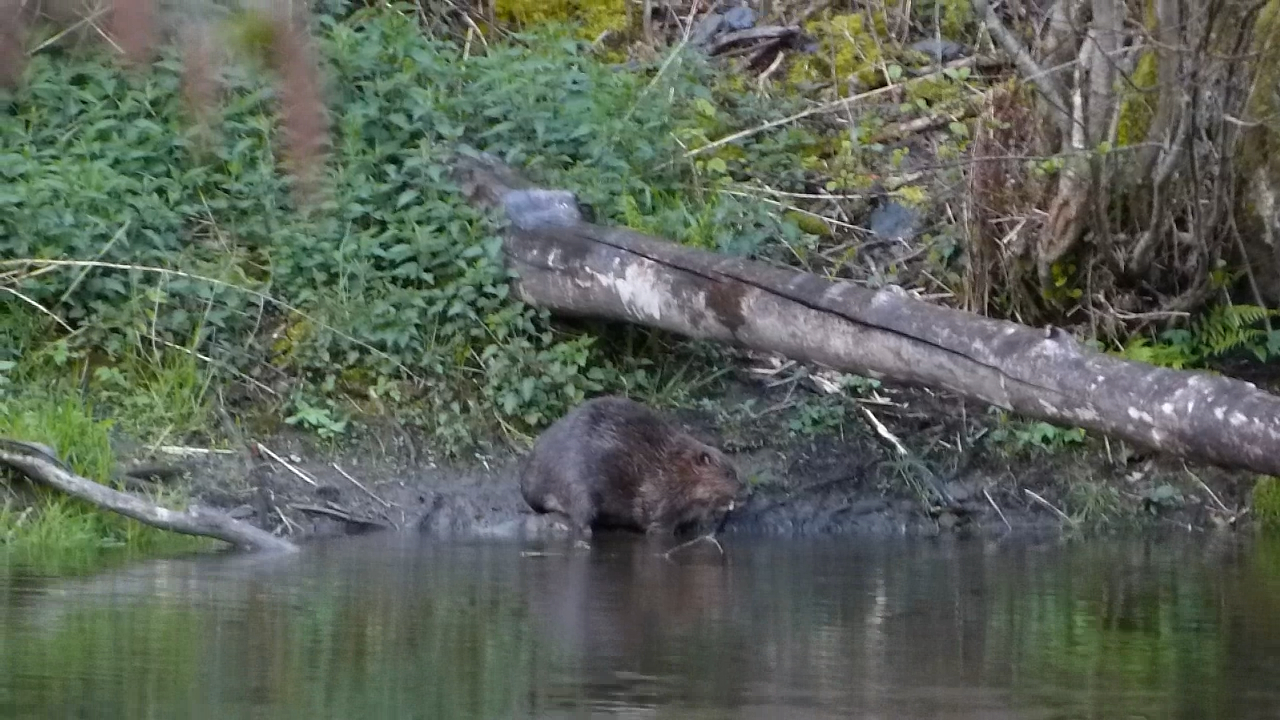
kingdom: Animalia
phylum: Chordata
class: Mammalia
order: Rodentia
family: Castoridae
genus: Castor
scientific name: Castor fiber
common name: Eurasian beaver
